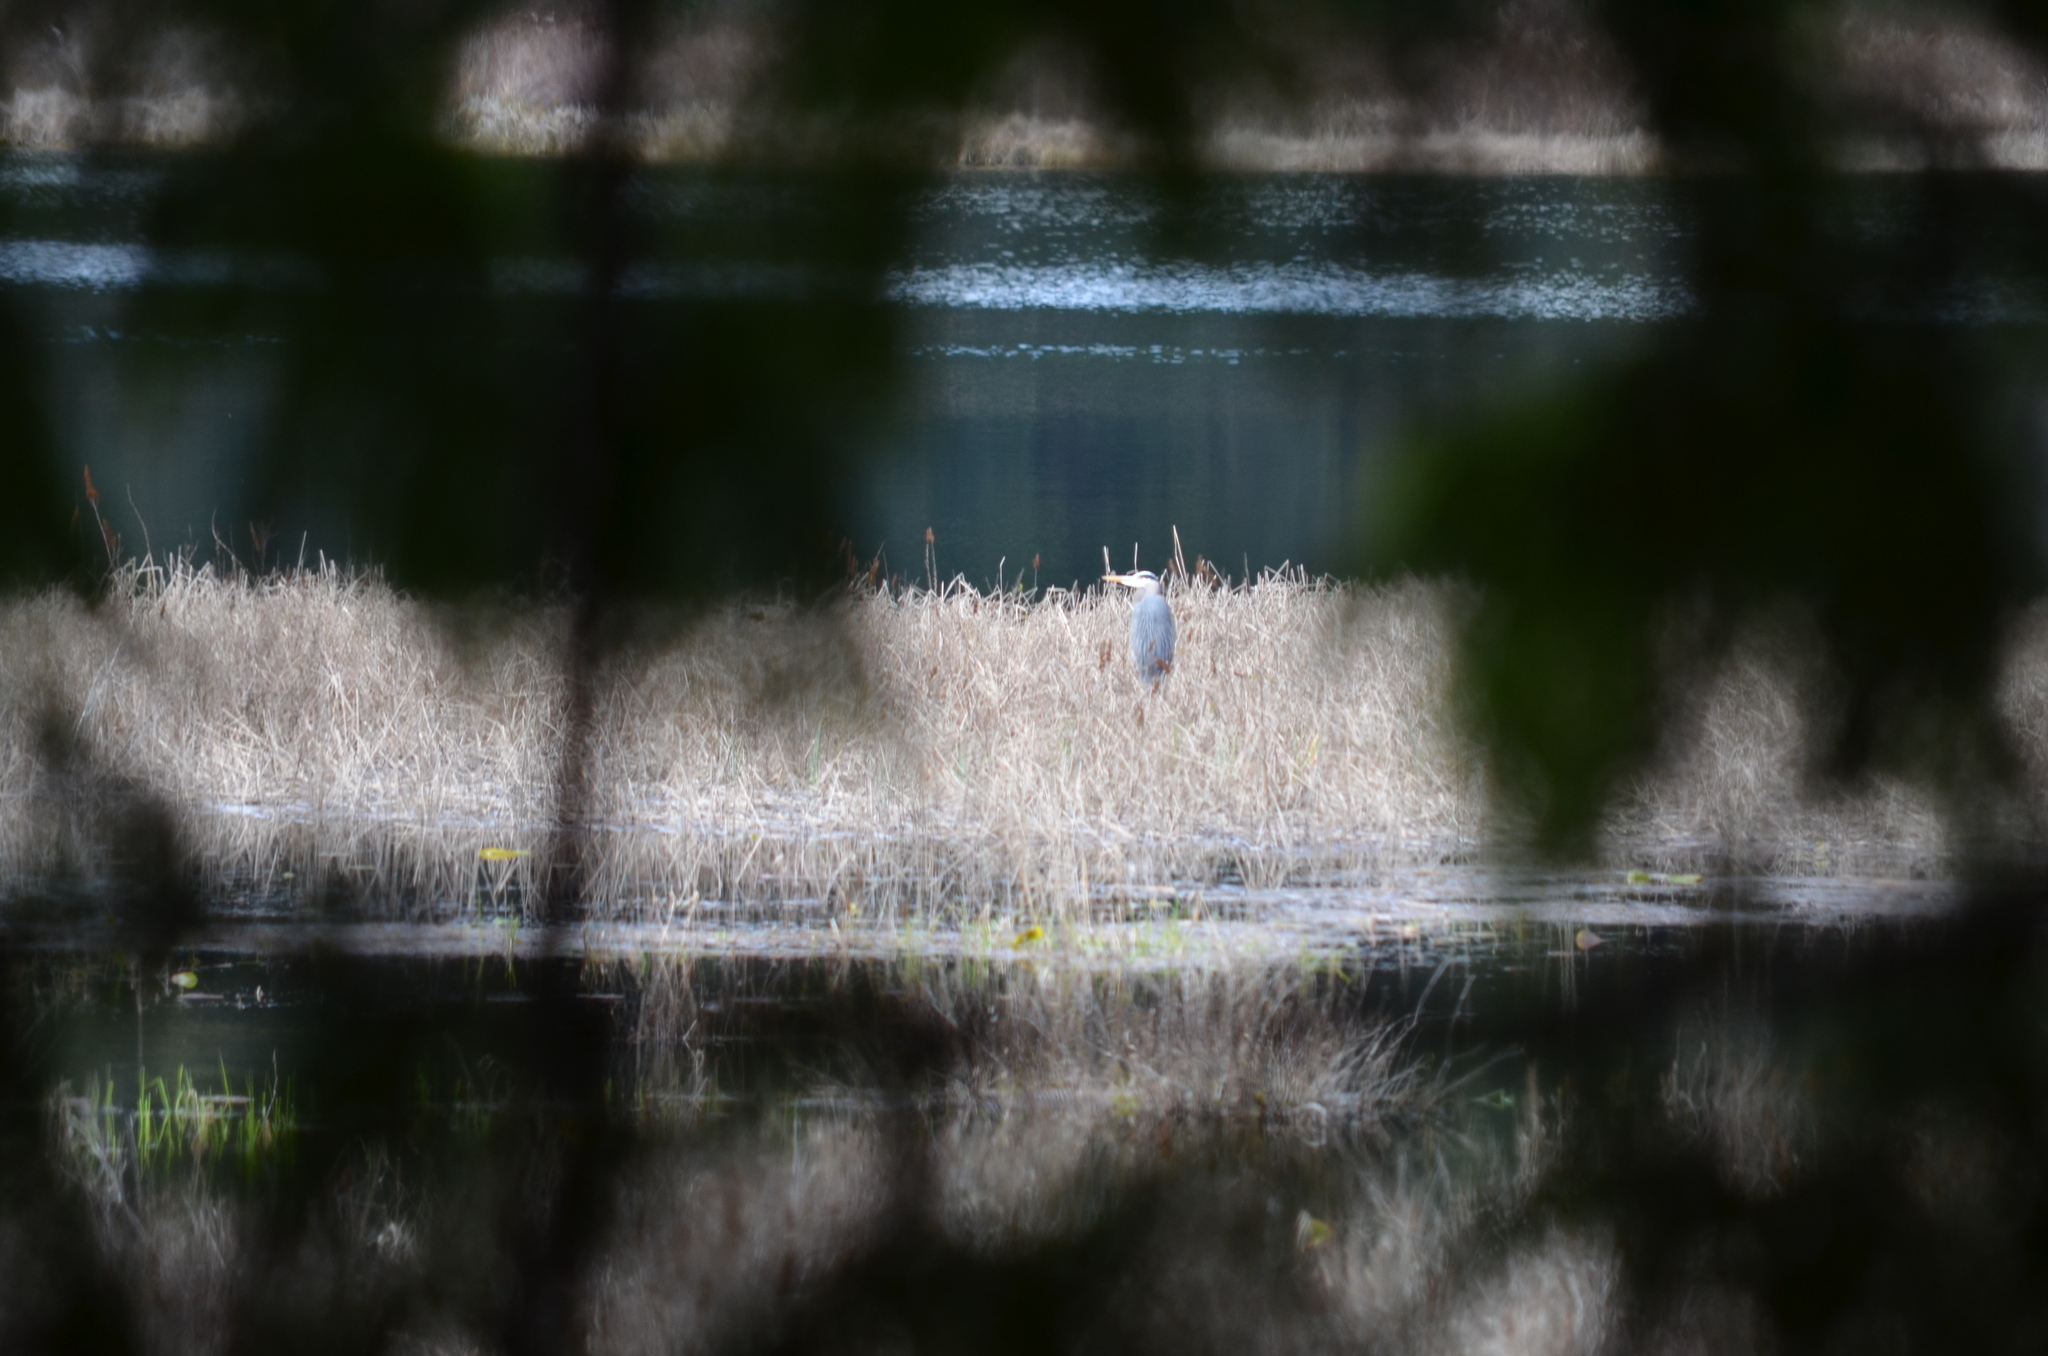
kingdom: Animalia
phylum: Chordata
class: Aves
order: Pelecaniformes
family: Ardeidae
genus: Ardea
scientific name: Ardea herodias
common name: Great blue heron
